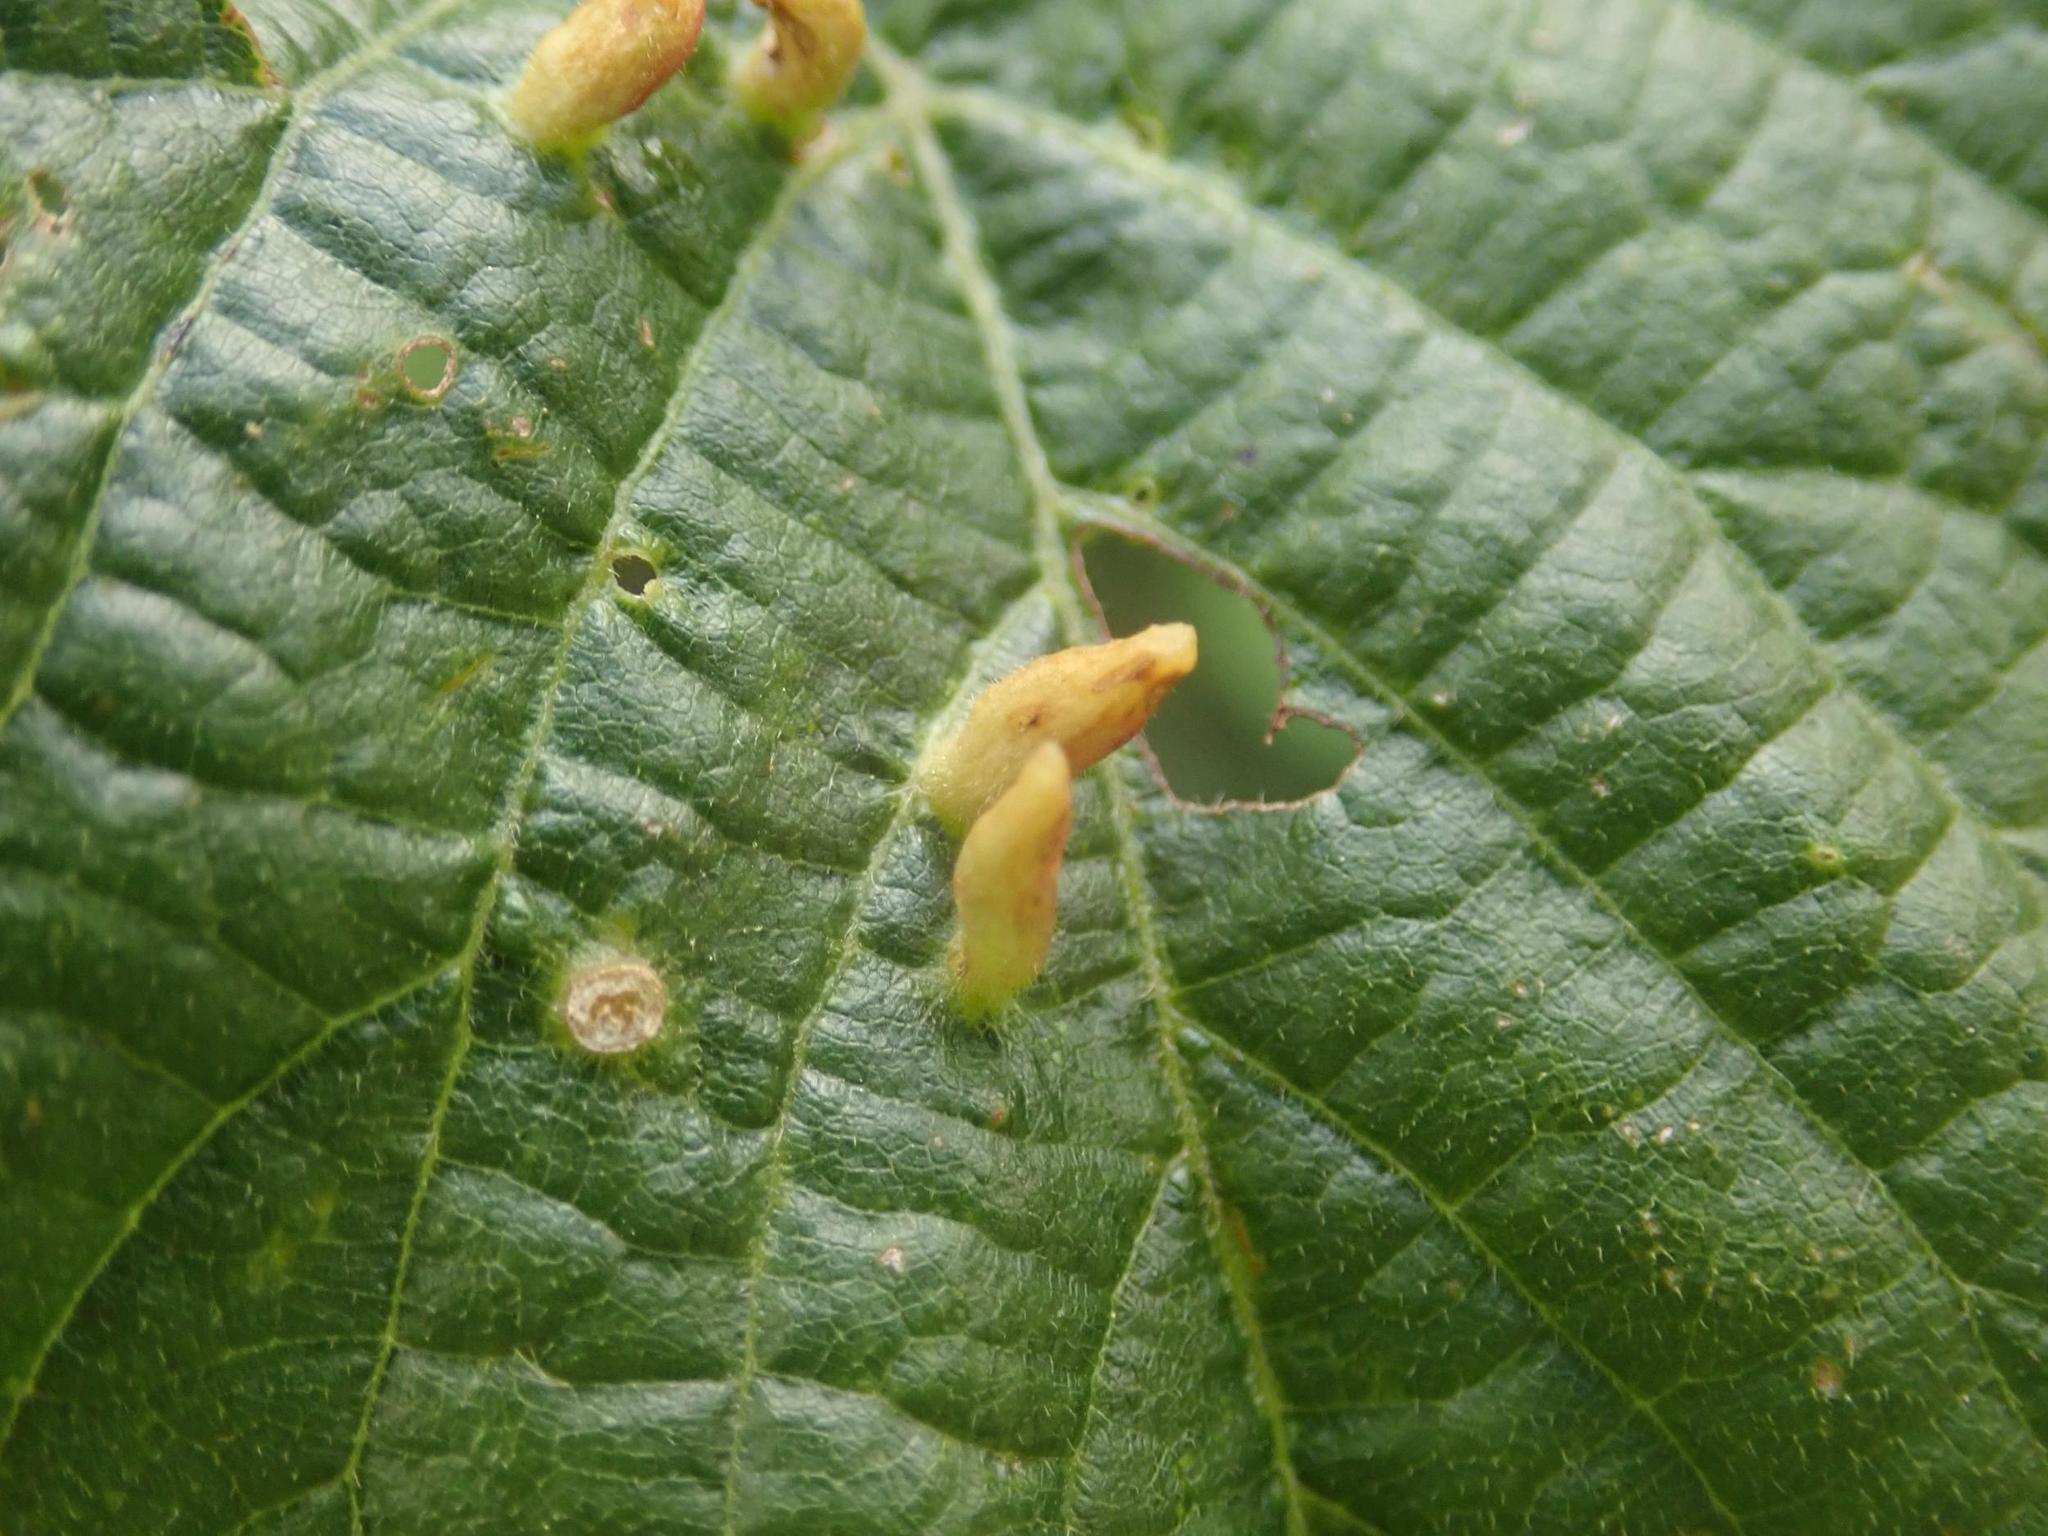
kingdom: Animalia
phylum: Arthropoda
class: Arachnida
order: Trombidiformes
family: Eriophyidae
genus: Eriophyes
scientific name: Eriophyes tiliae
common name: Red nail gall mite
